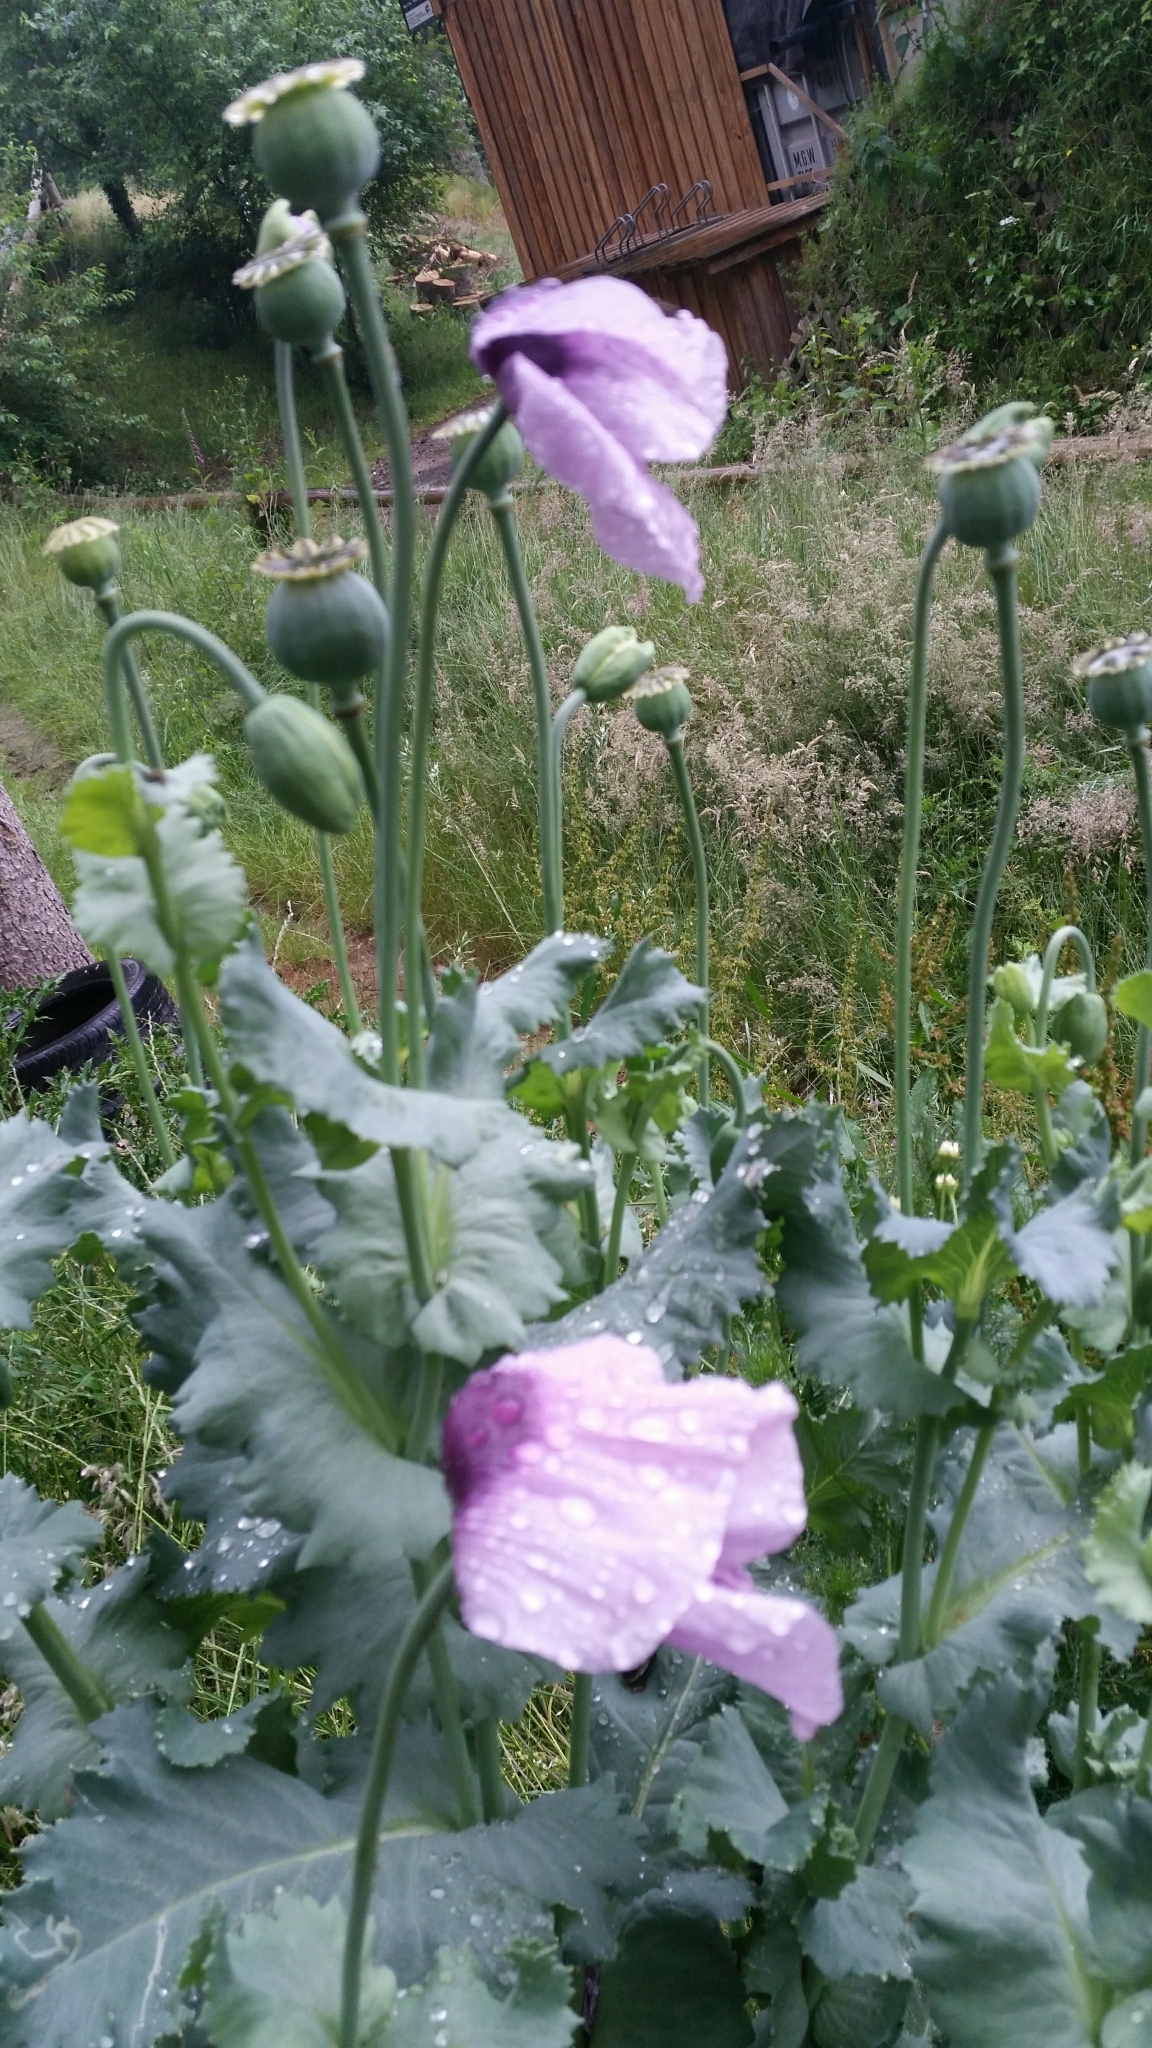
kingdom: Plantae
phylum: Tracheophyta
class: Magnoliopsida
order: Ranunculales
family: Papaveraceae
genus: Papaver
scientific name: Papaver somniferum
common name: Opium poppy
